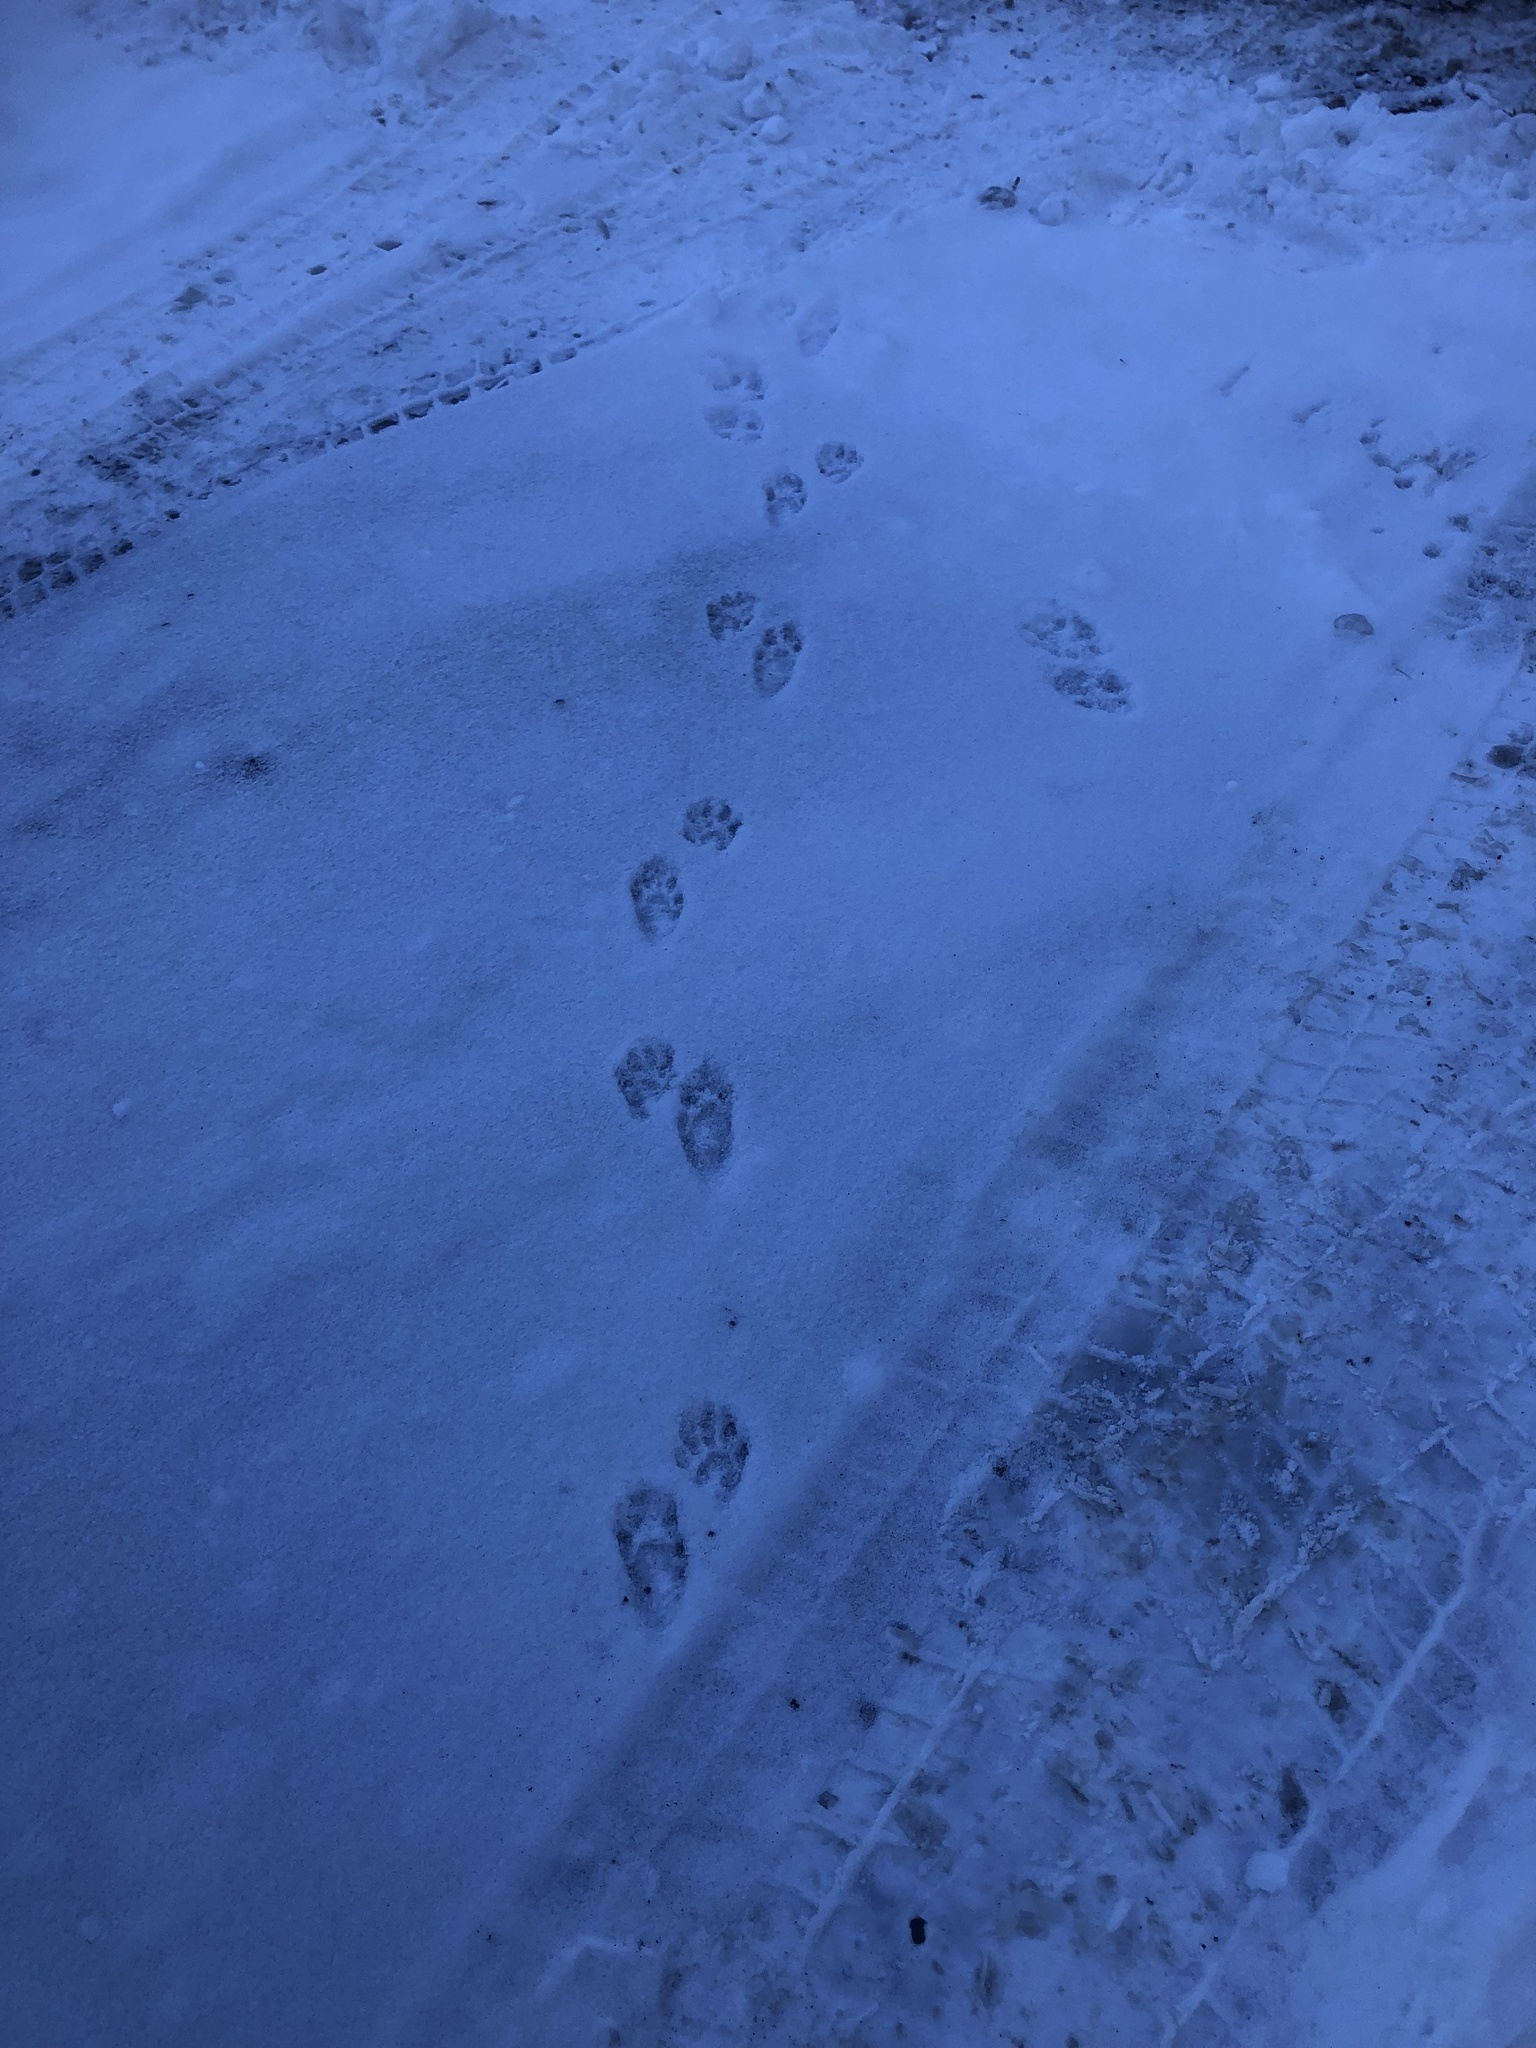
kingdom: Animalia
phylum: Chordata
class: Mammalia
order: Carnivora
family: Procyonidae
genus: Procyon
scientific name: Procyon lotor
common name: Raccoon
